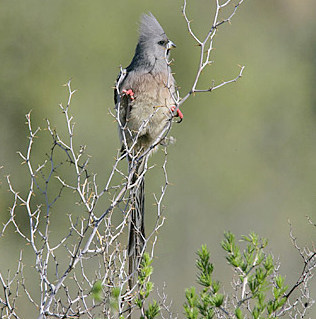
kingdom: Animalia
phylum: Chordata
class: Aves
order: Coliiformes
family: Coliidae
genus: Colius
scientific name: Colius colius
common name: White-backed mousebird
